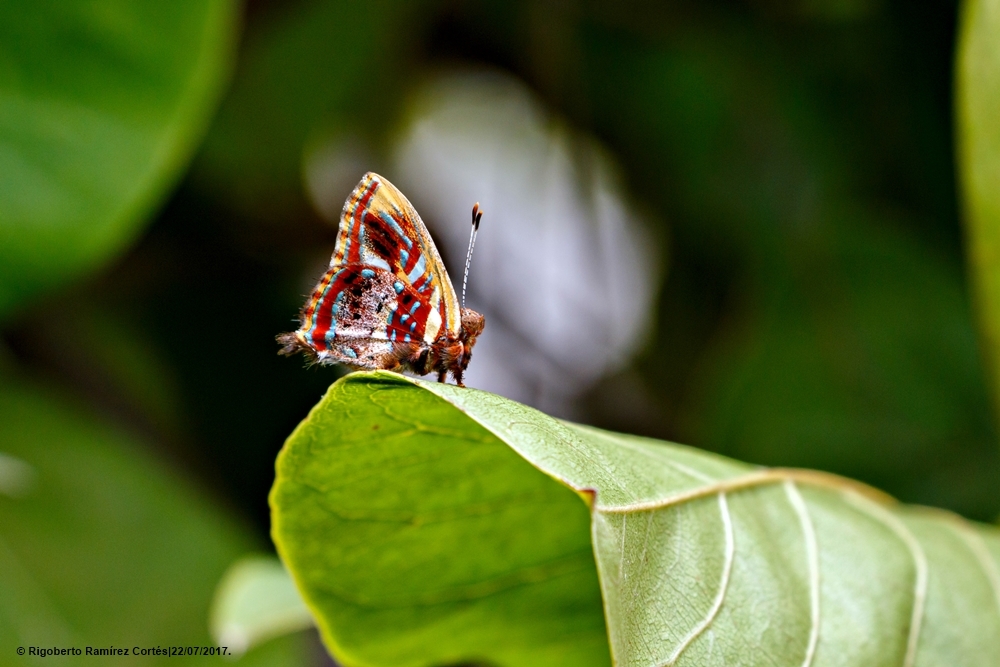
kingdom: Animalia
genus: Anteros
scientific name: Anteros carausius
